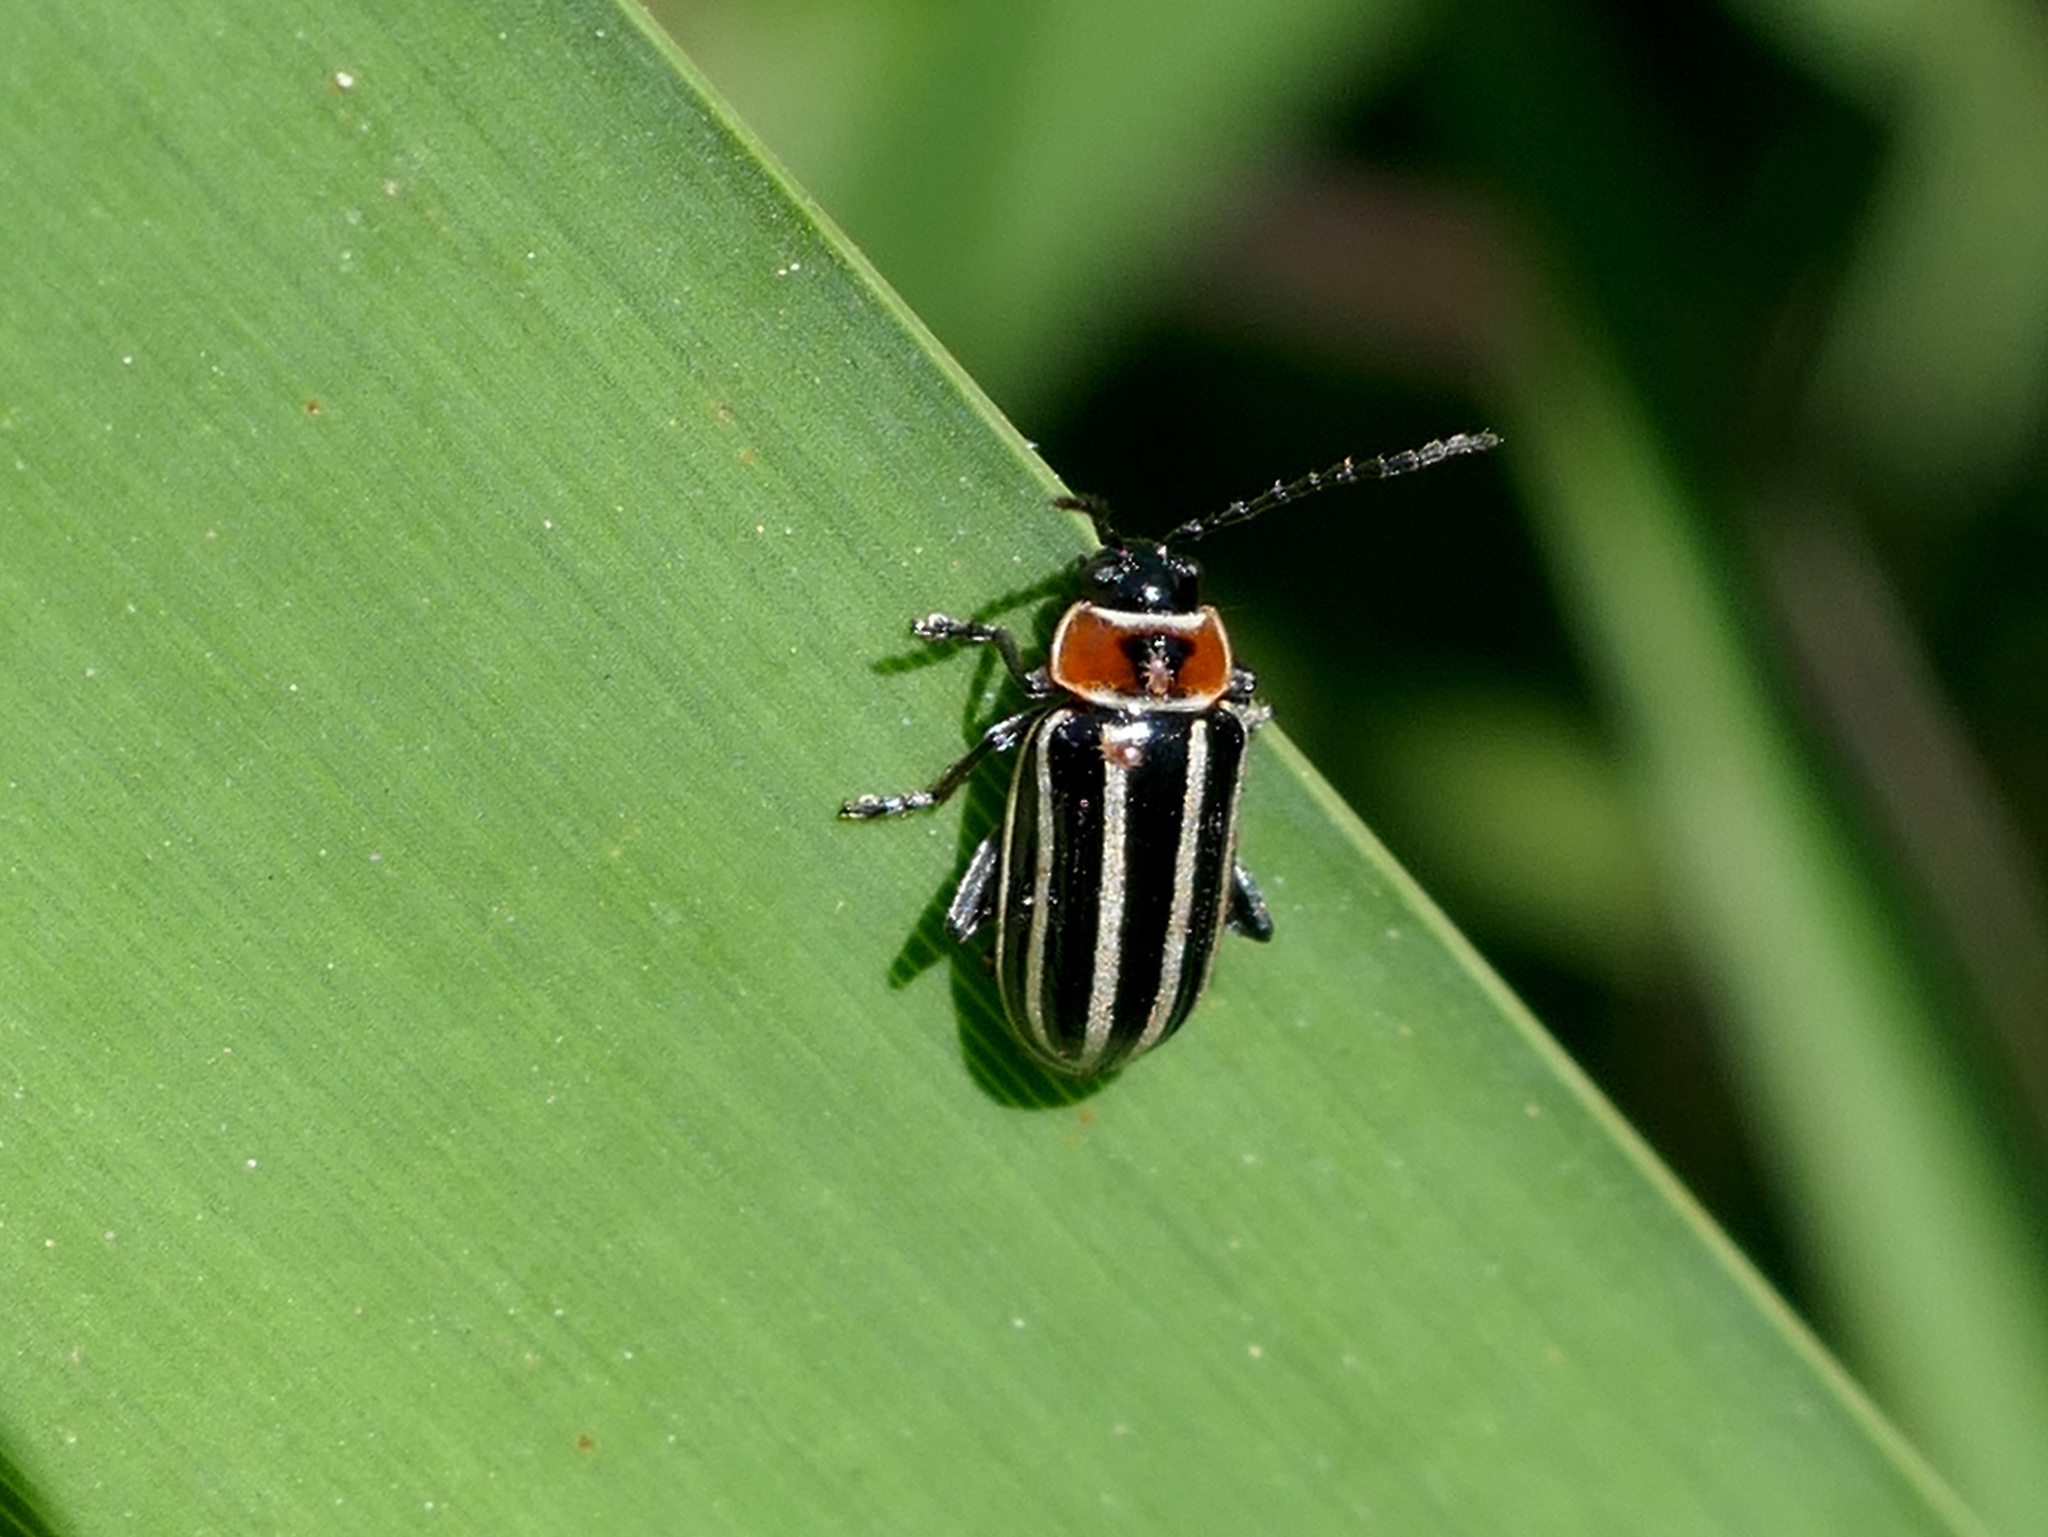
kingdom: Animalia
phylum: Arthropoda
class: Insecta
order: Coleoptera
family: Chrysomelidae
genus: Disonycha
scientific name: Disonycha pensylvanica
